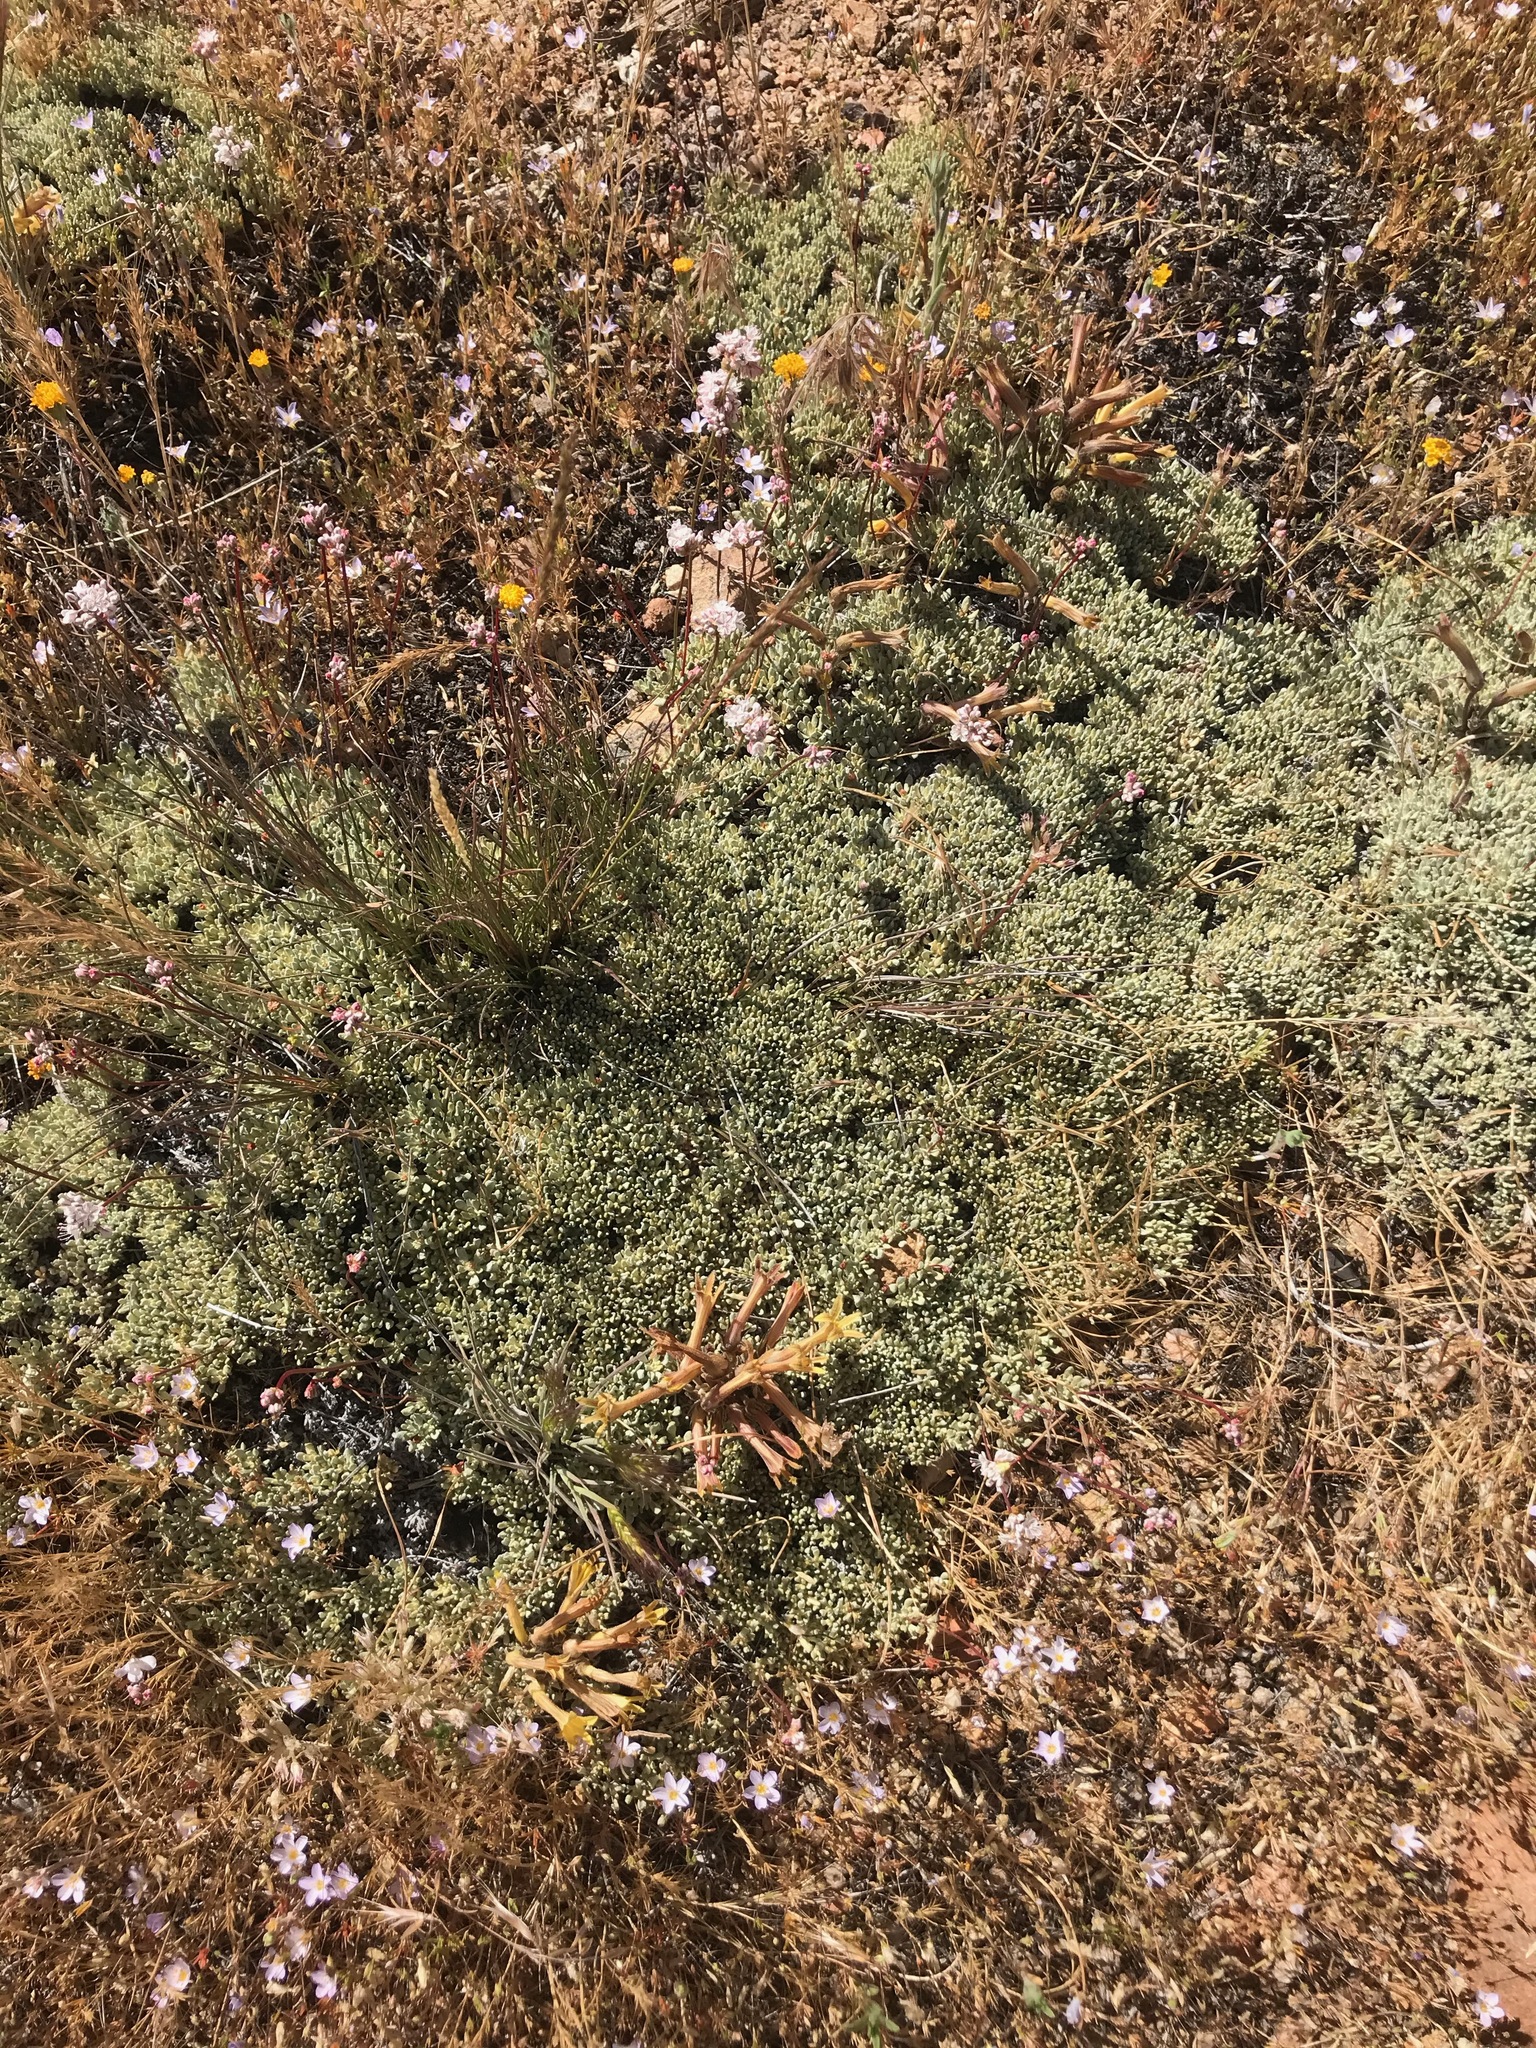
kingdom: Plantae
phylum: Tracheophyta
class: Magnoliopsida
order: Caryophyllales
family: Polygonaceae
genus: Eriogonum
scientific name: Eriogonum kennedyi
